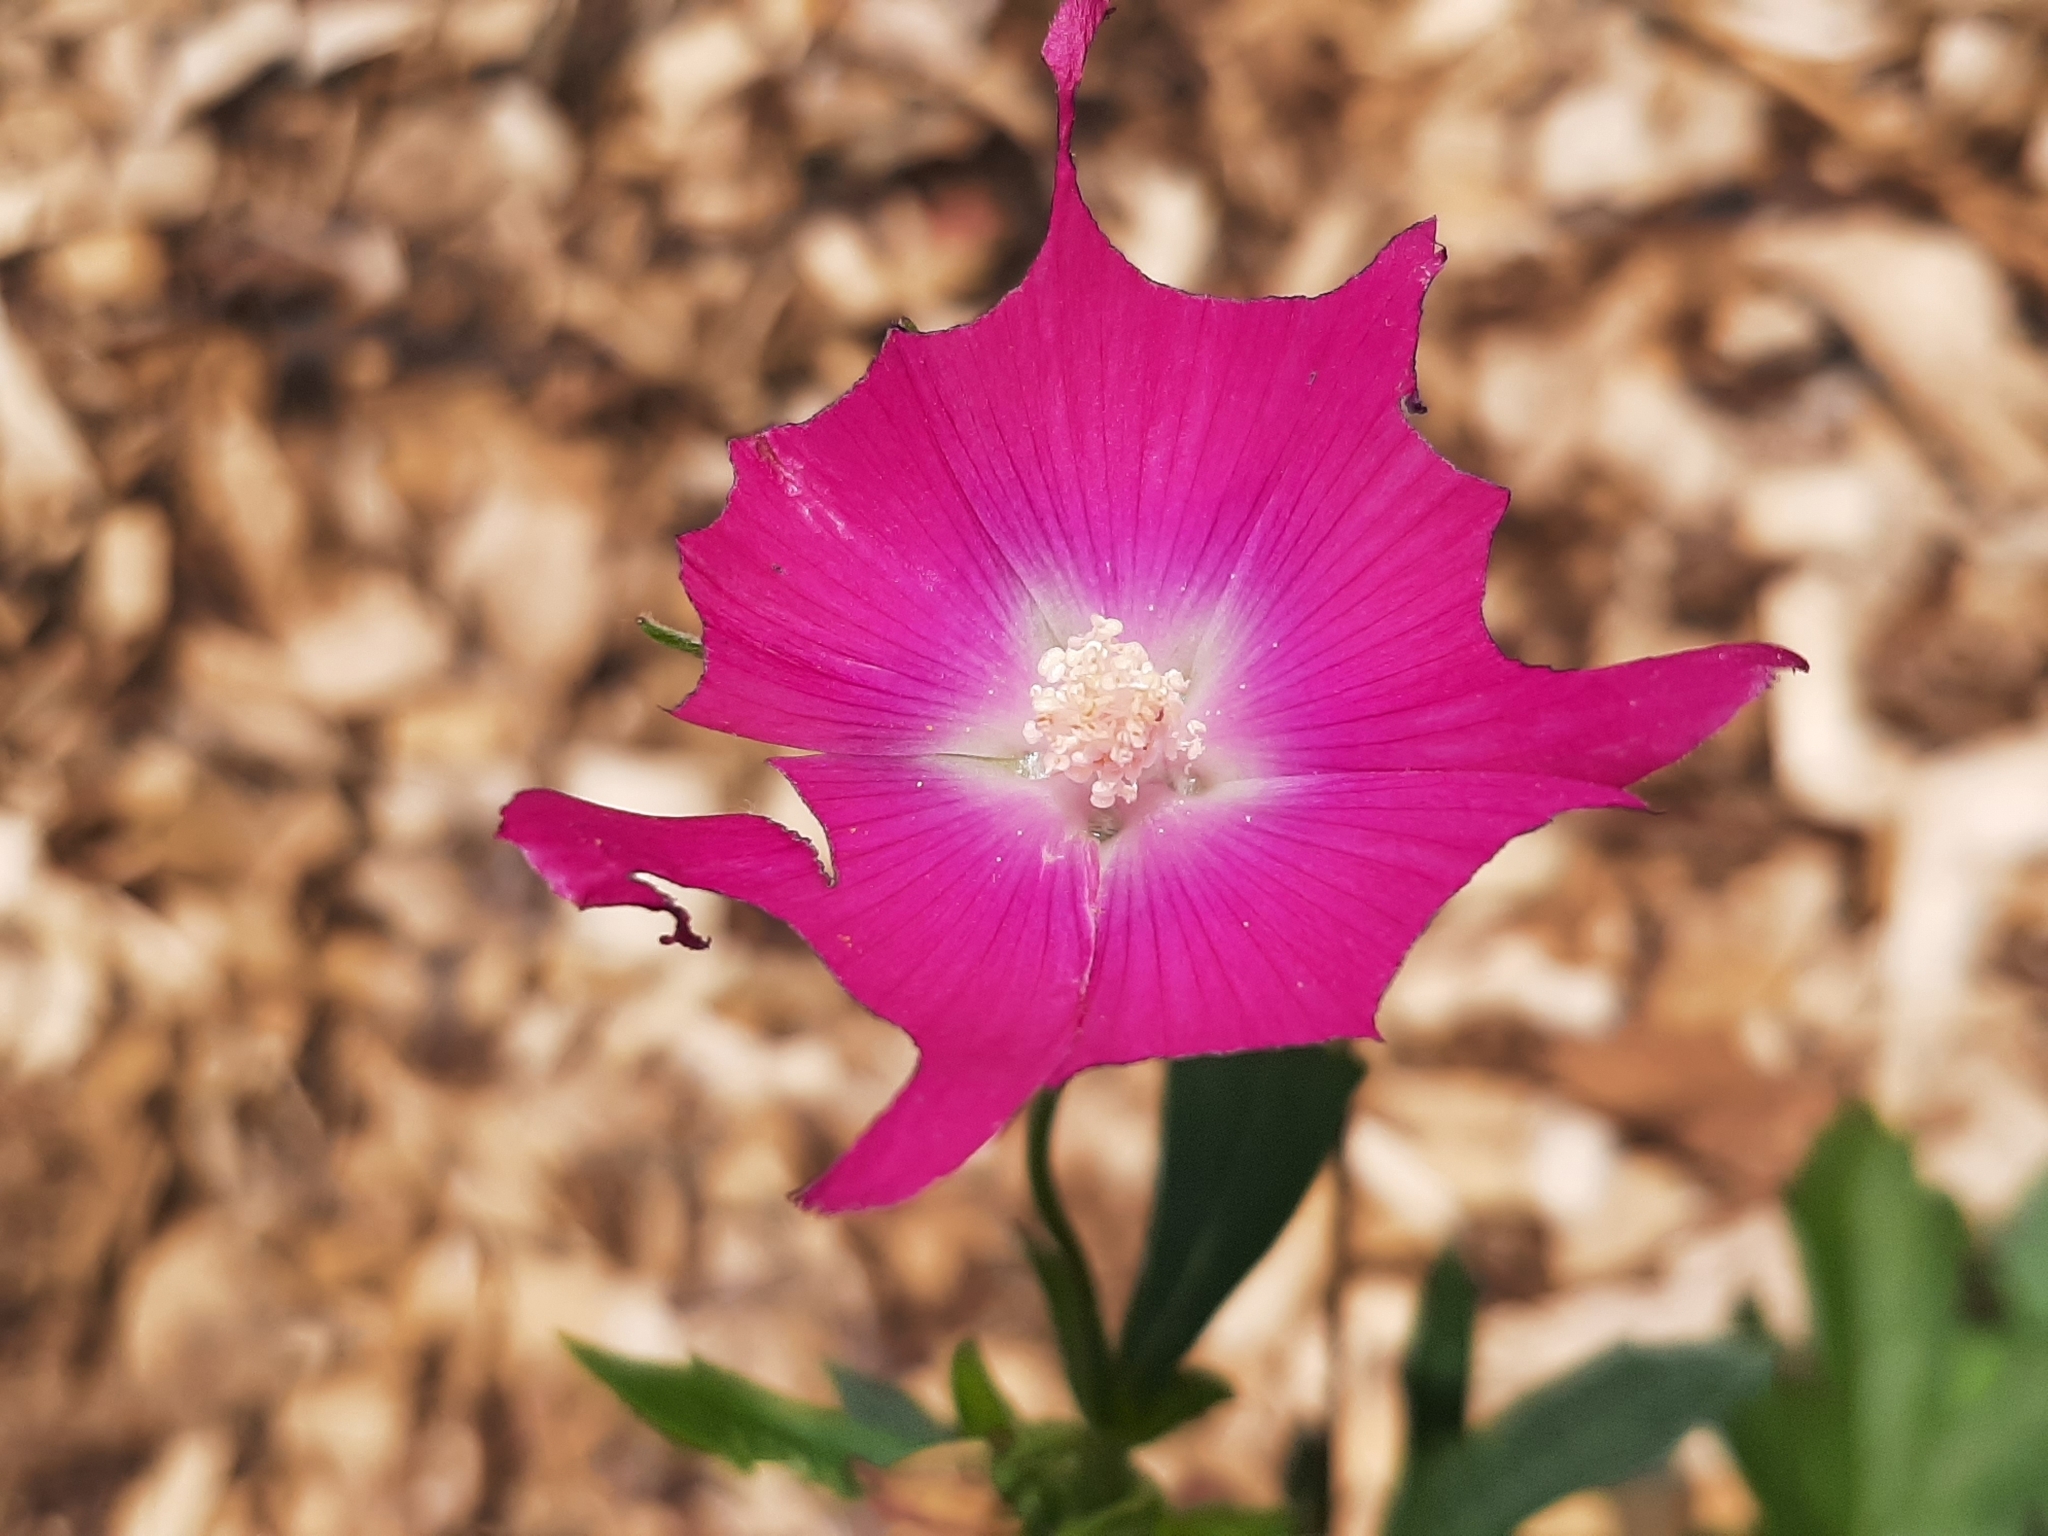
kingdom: Plantae
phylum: Tracheophyta
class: Magnoliopsida
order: Malvales
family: Malvaceae
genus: Callirhoe
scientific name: Callirhoe involucrata
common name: Purple poppy-mallow
